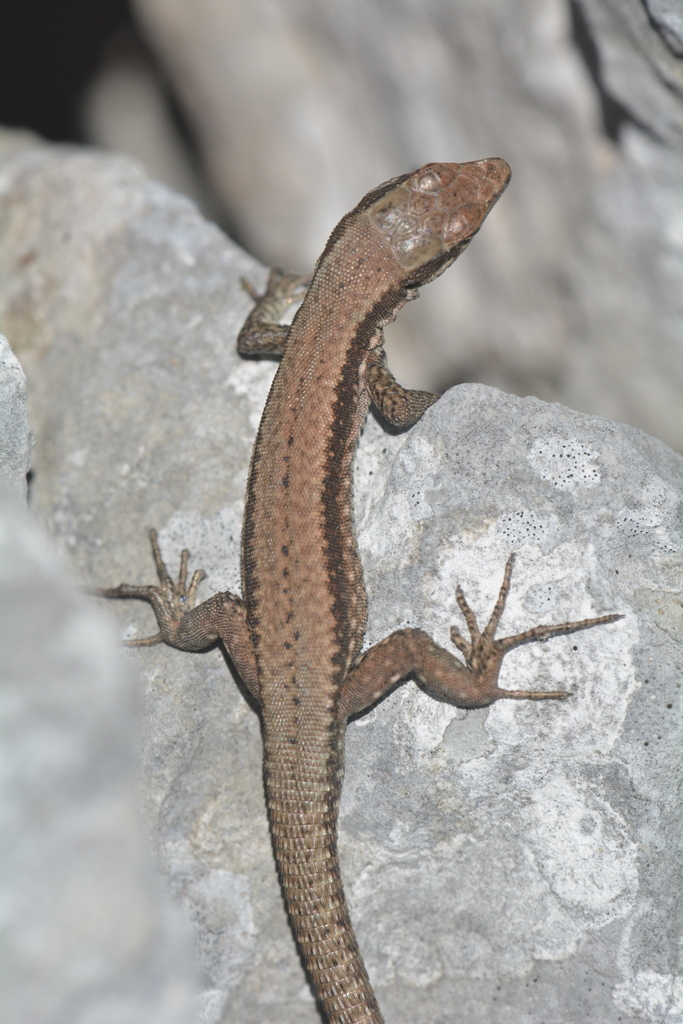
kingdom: Animalia
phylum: Chordata
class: Squamata
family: Lacertidae
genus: Podarcis
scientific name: Podarcis muralis
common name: Common wall lizard
